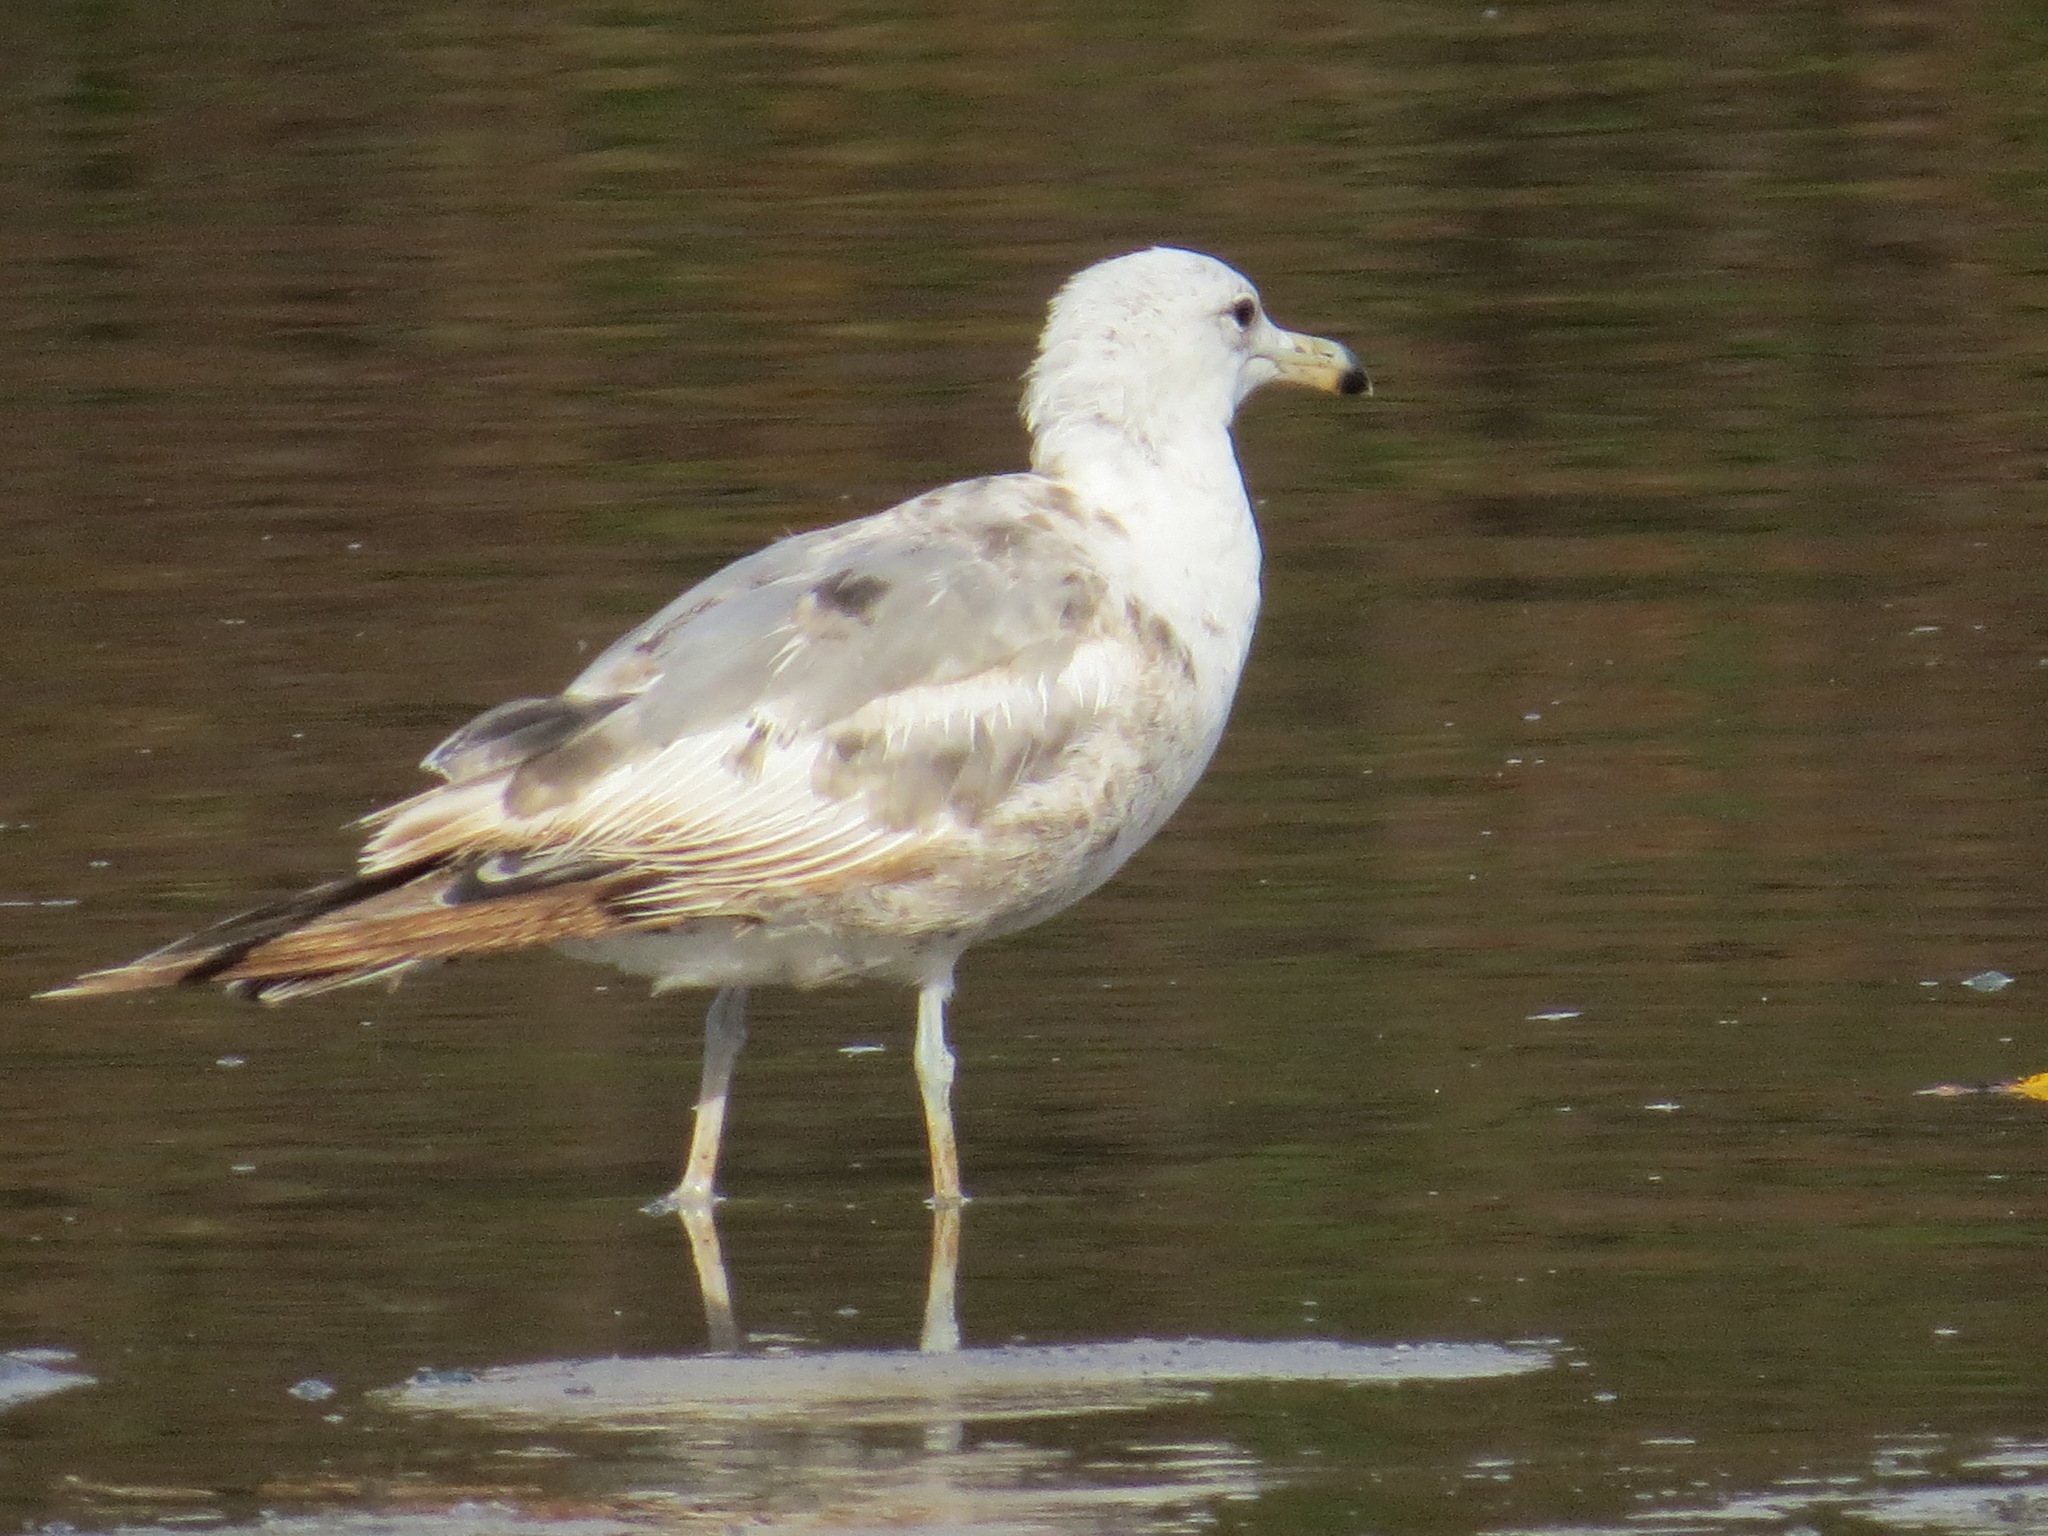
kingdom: Animalia
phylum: Chordata
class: Aves
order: Charadriiformes
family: Laridae
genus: Larus
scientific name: Larus californicus
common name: California gull
